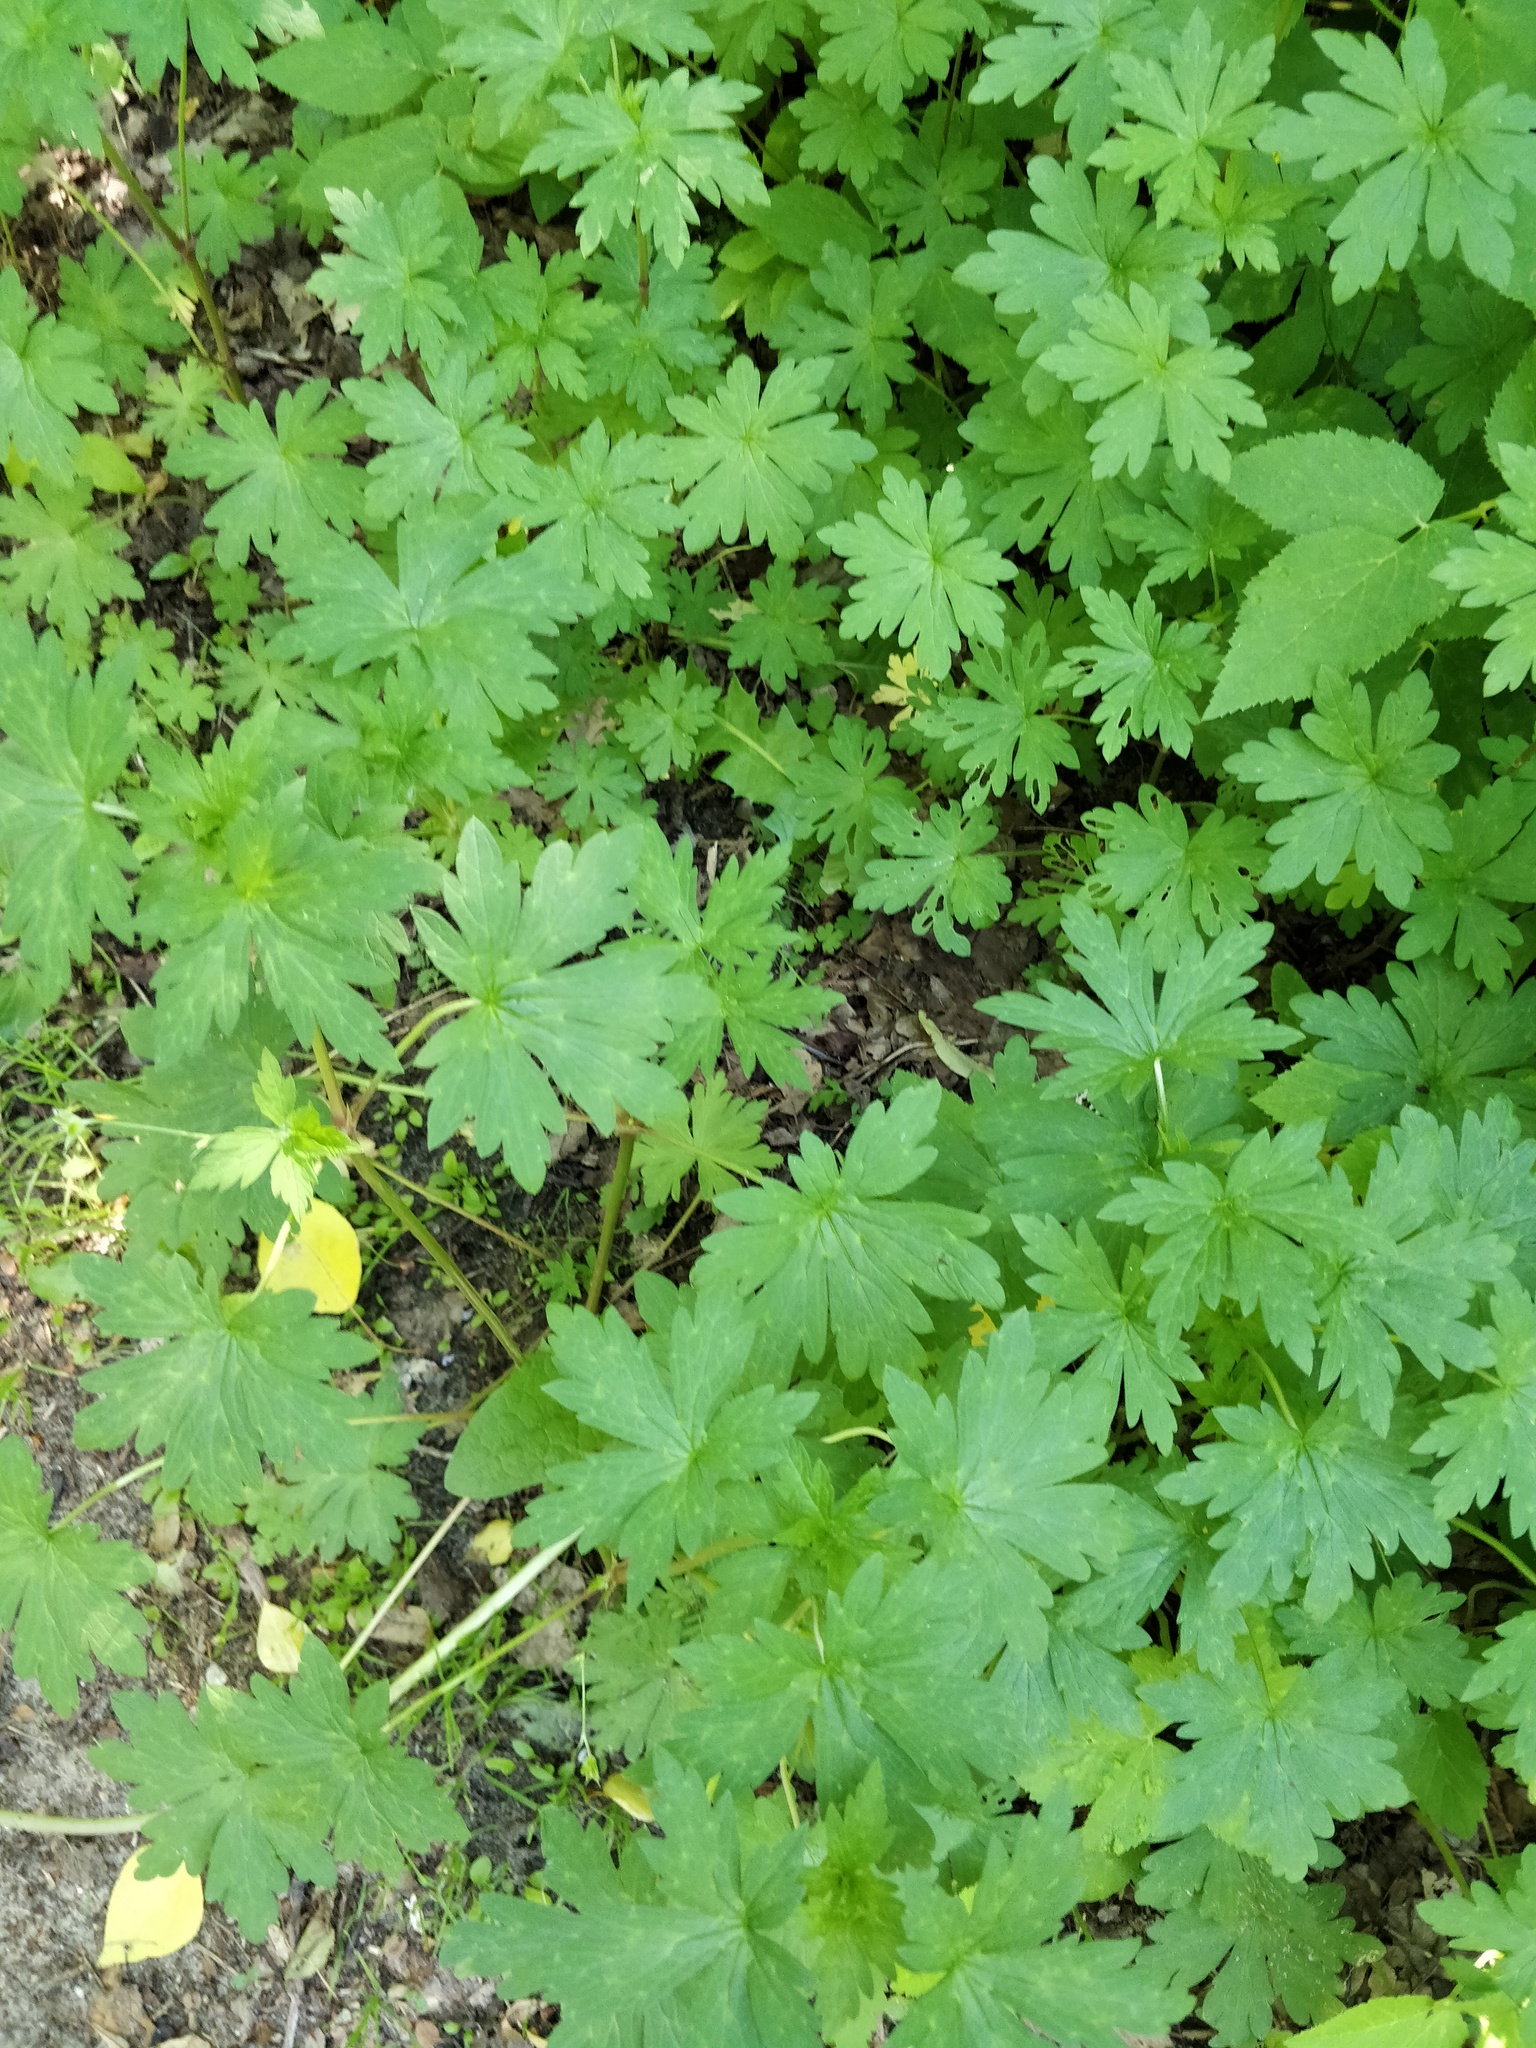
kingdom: Plantae
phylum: Tracheophyta
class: Magnoliopsida
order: Geraniales
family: Geraniaceae
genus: Geranium
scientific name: Geranium sibiricum
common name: Siberian crane's-bill
